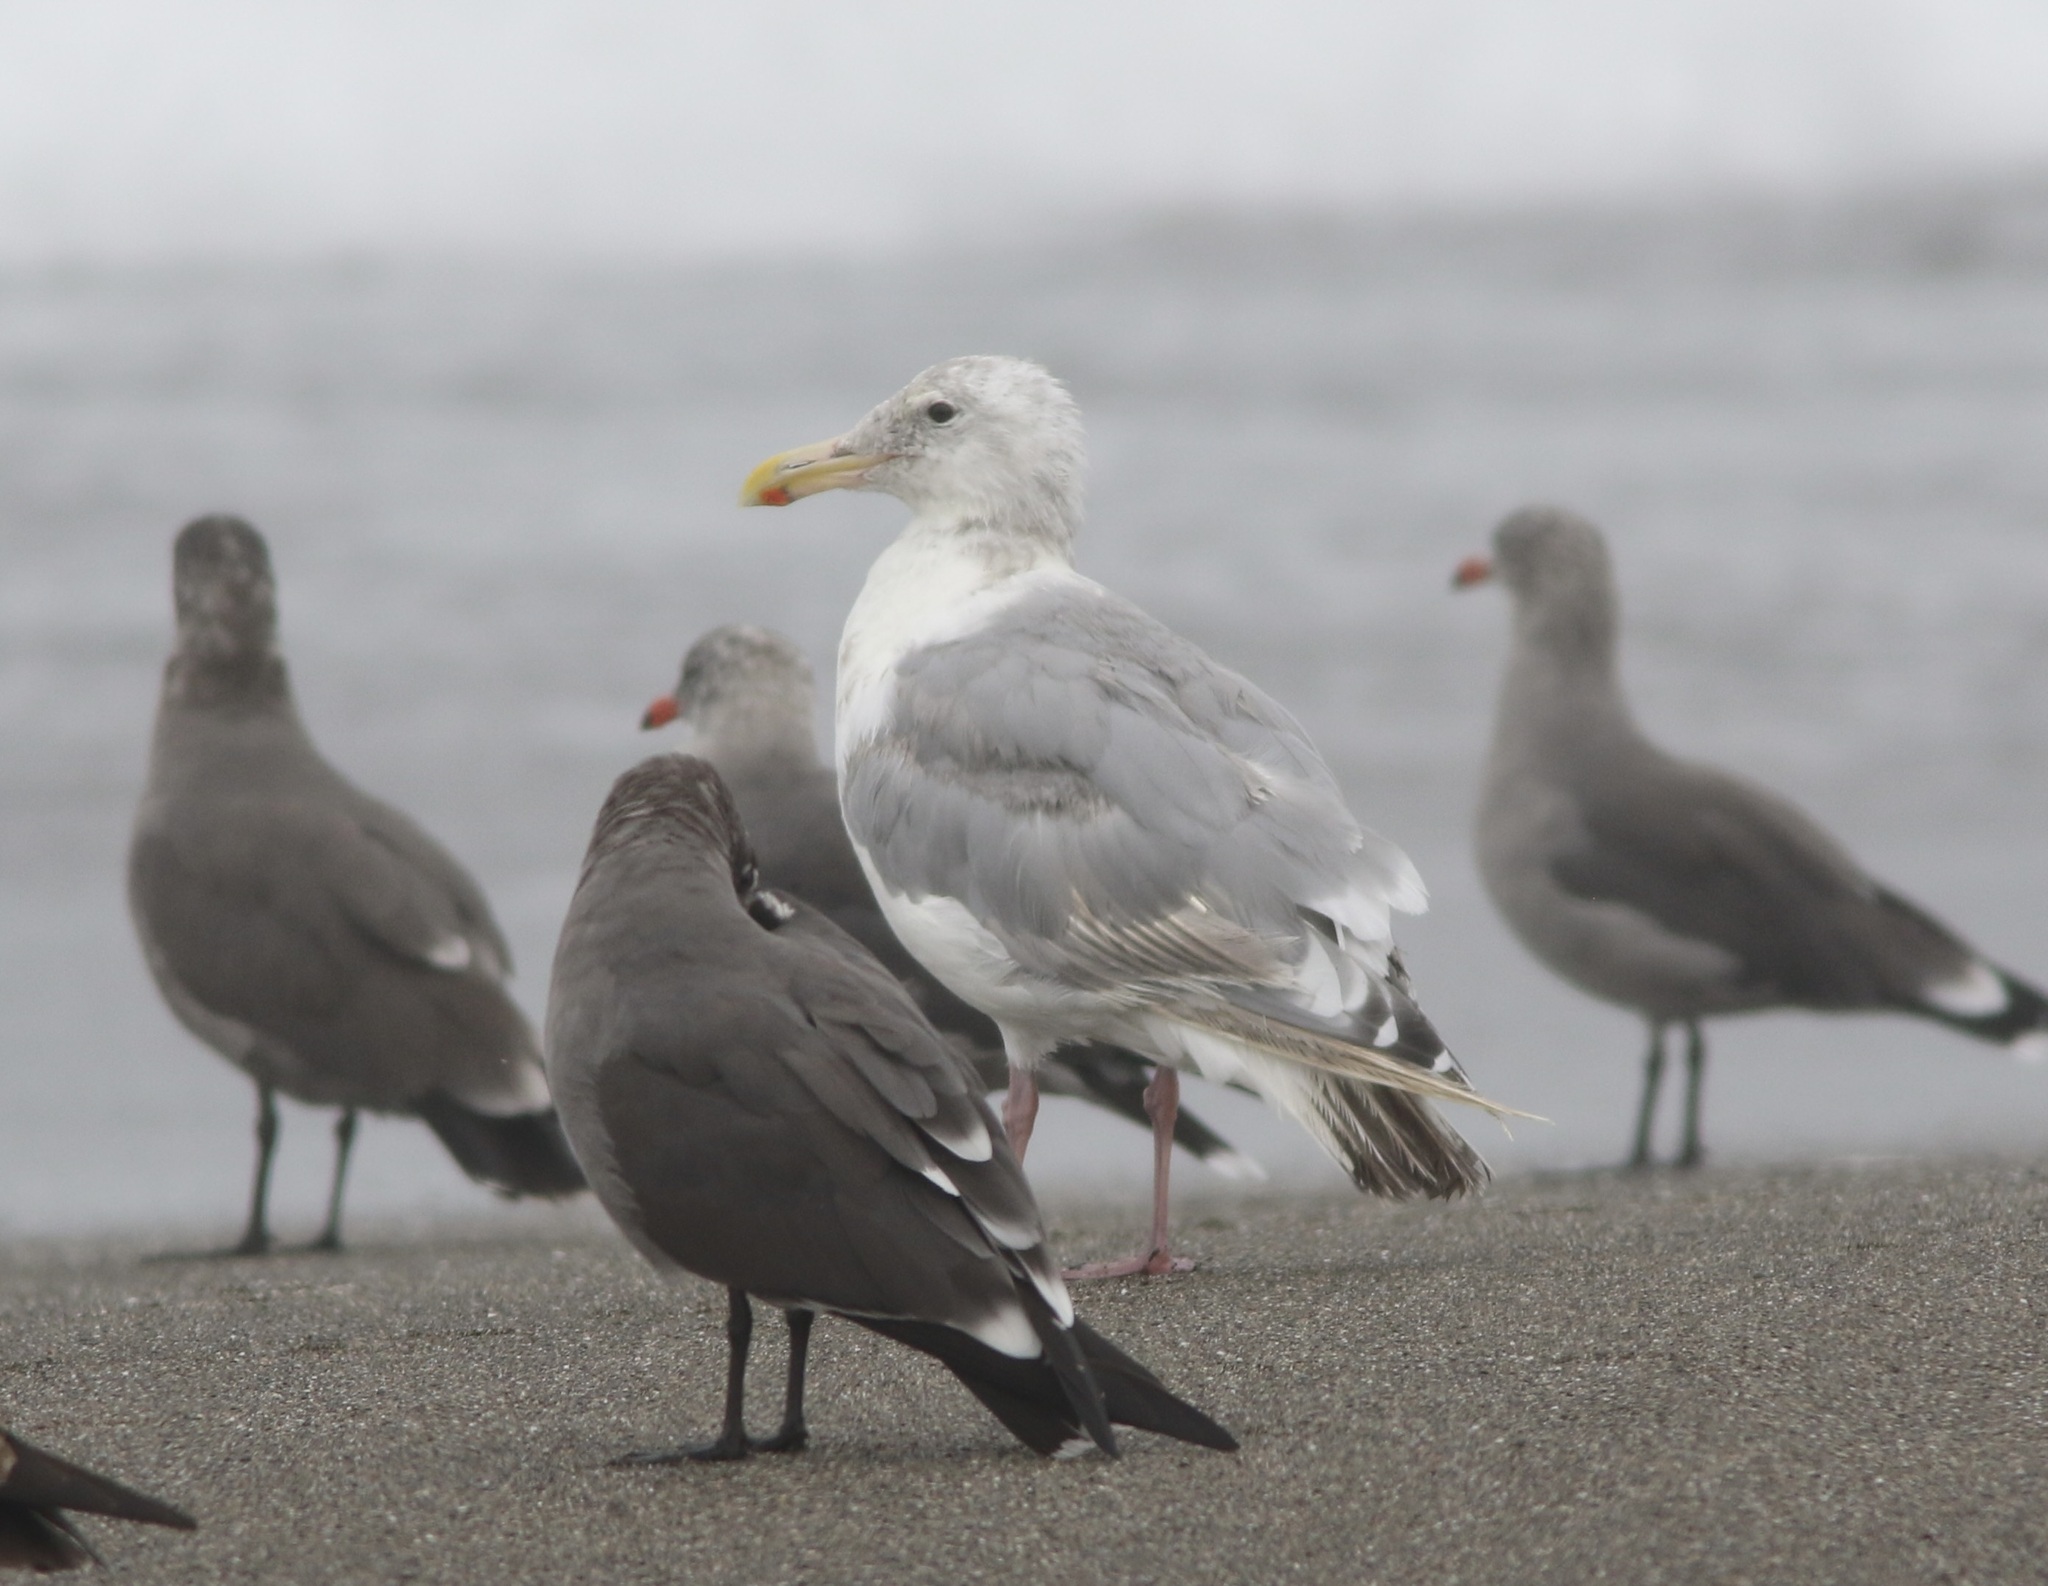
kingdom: Animalia
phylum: Chordata
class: Aves
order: Charadriiformes
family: Laridae
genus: Larus
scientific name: Larus
